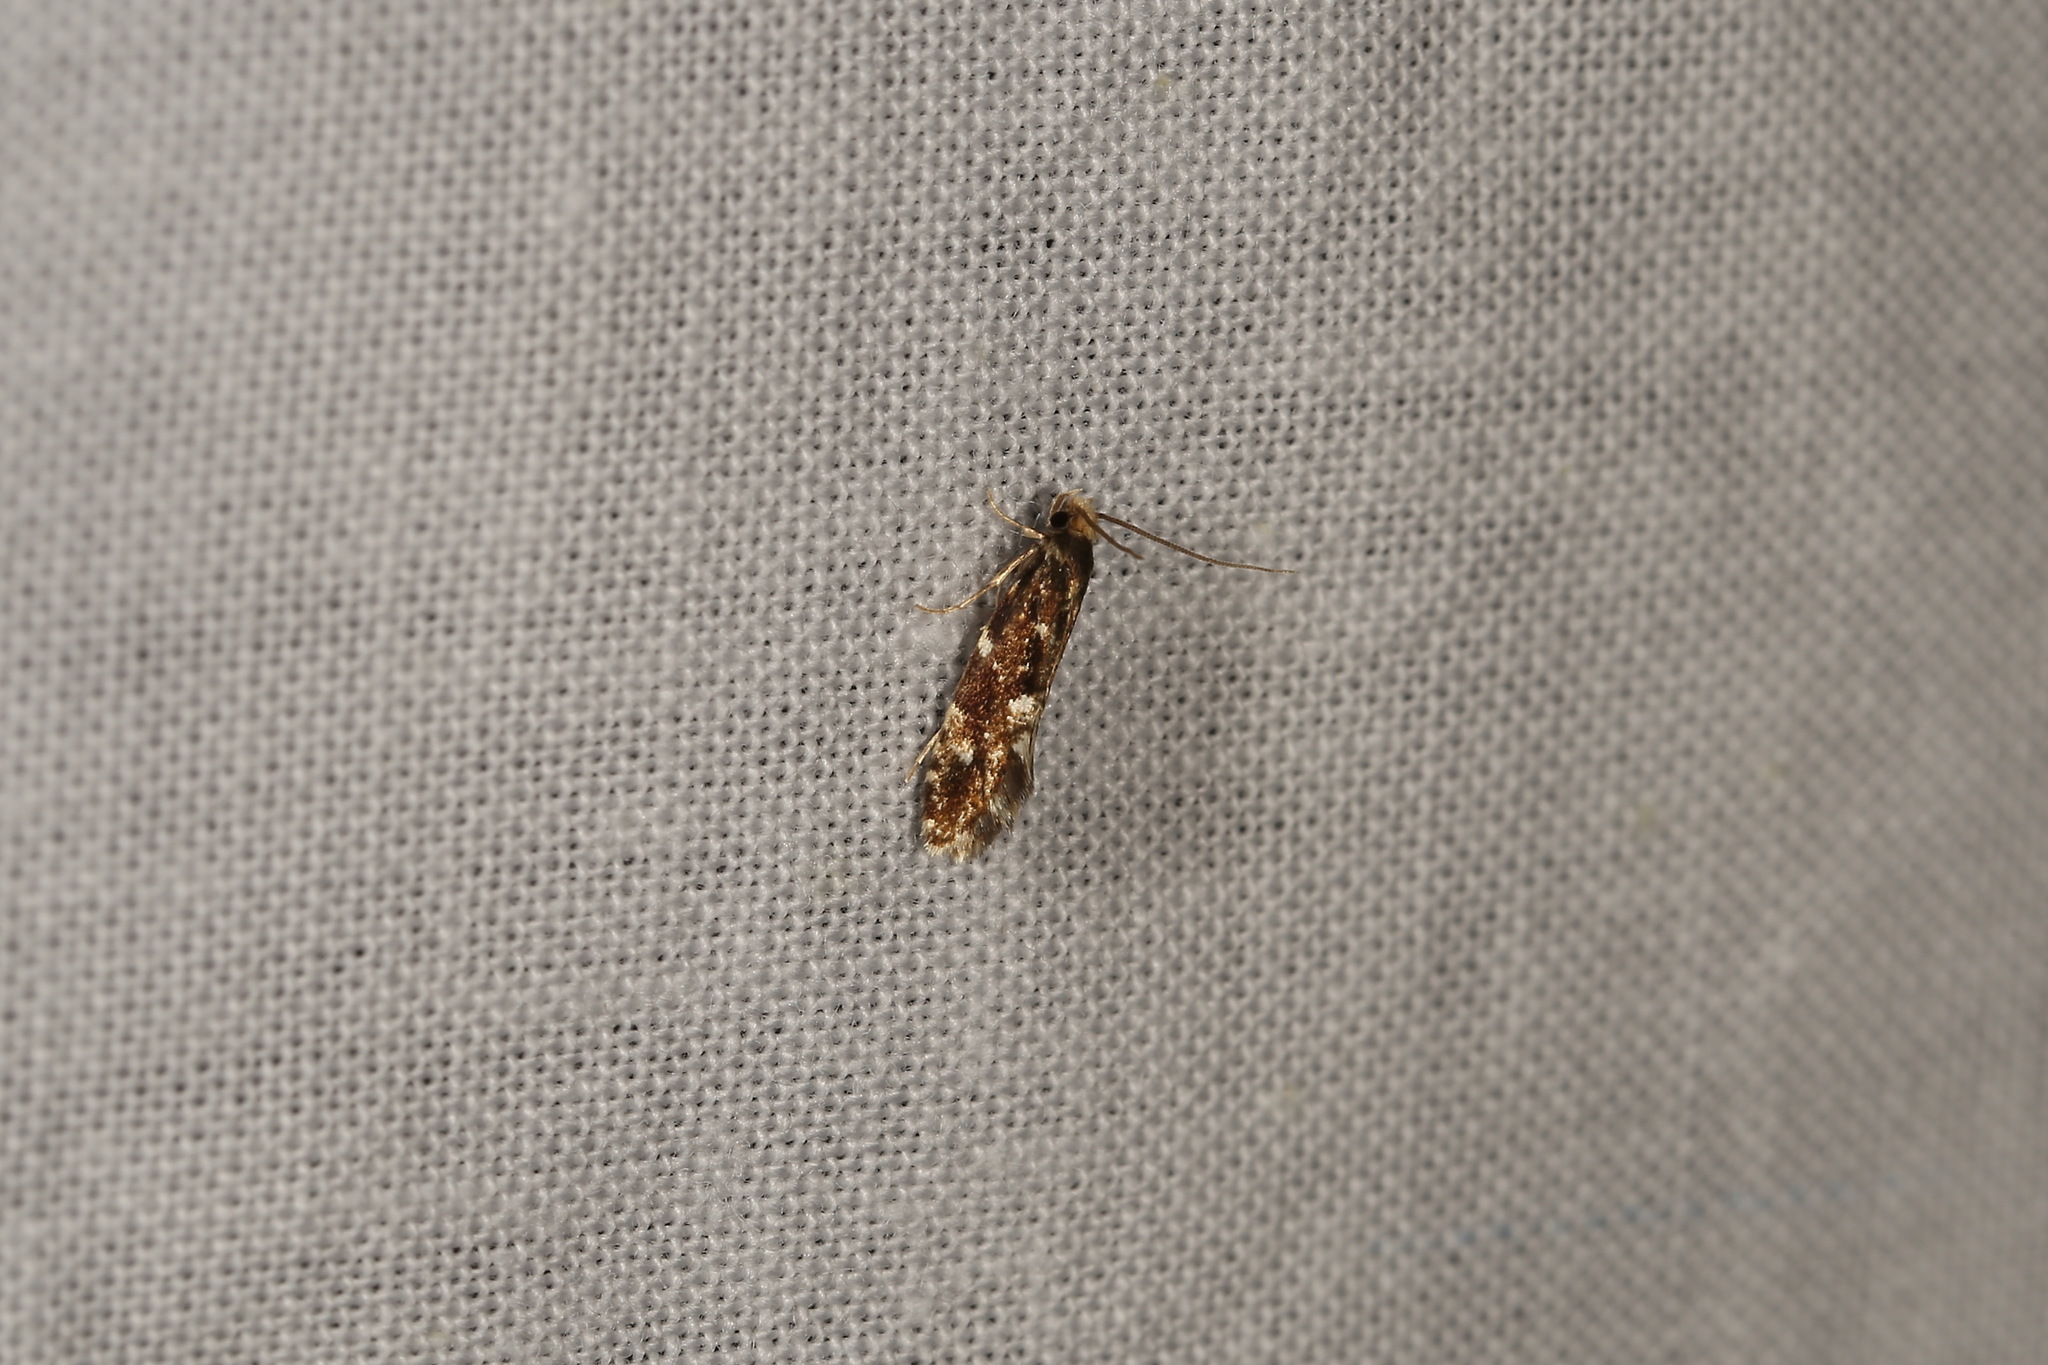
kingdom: Animalia
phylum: Arthropoda
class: Insecta
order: Lepidoptera
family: Tineidae
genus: Nemapogon
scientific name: Nemapogon koenigi
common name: White-speckled clothes
